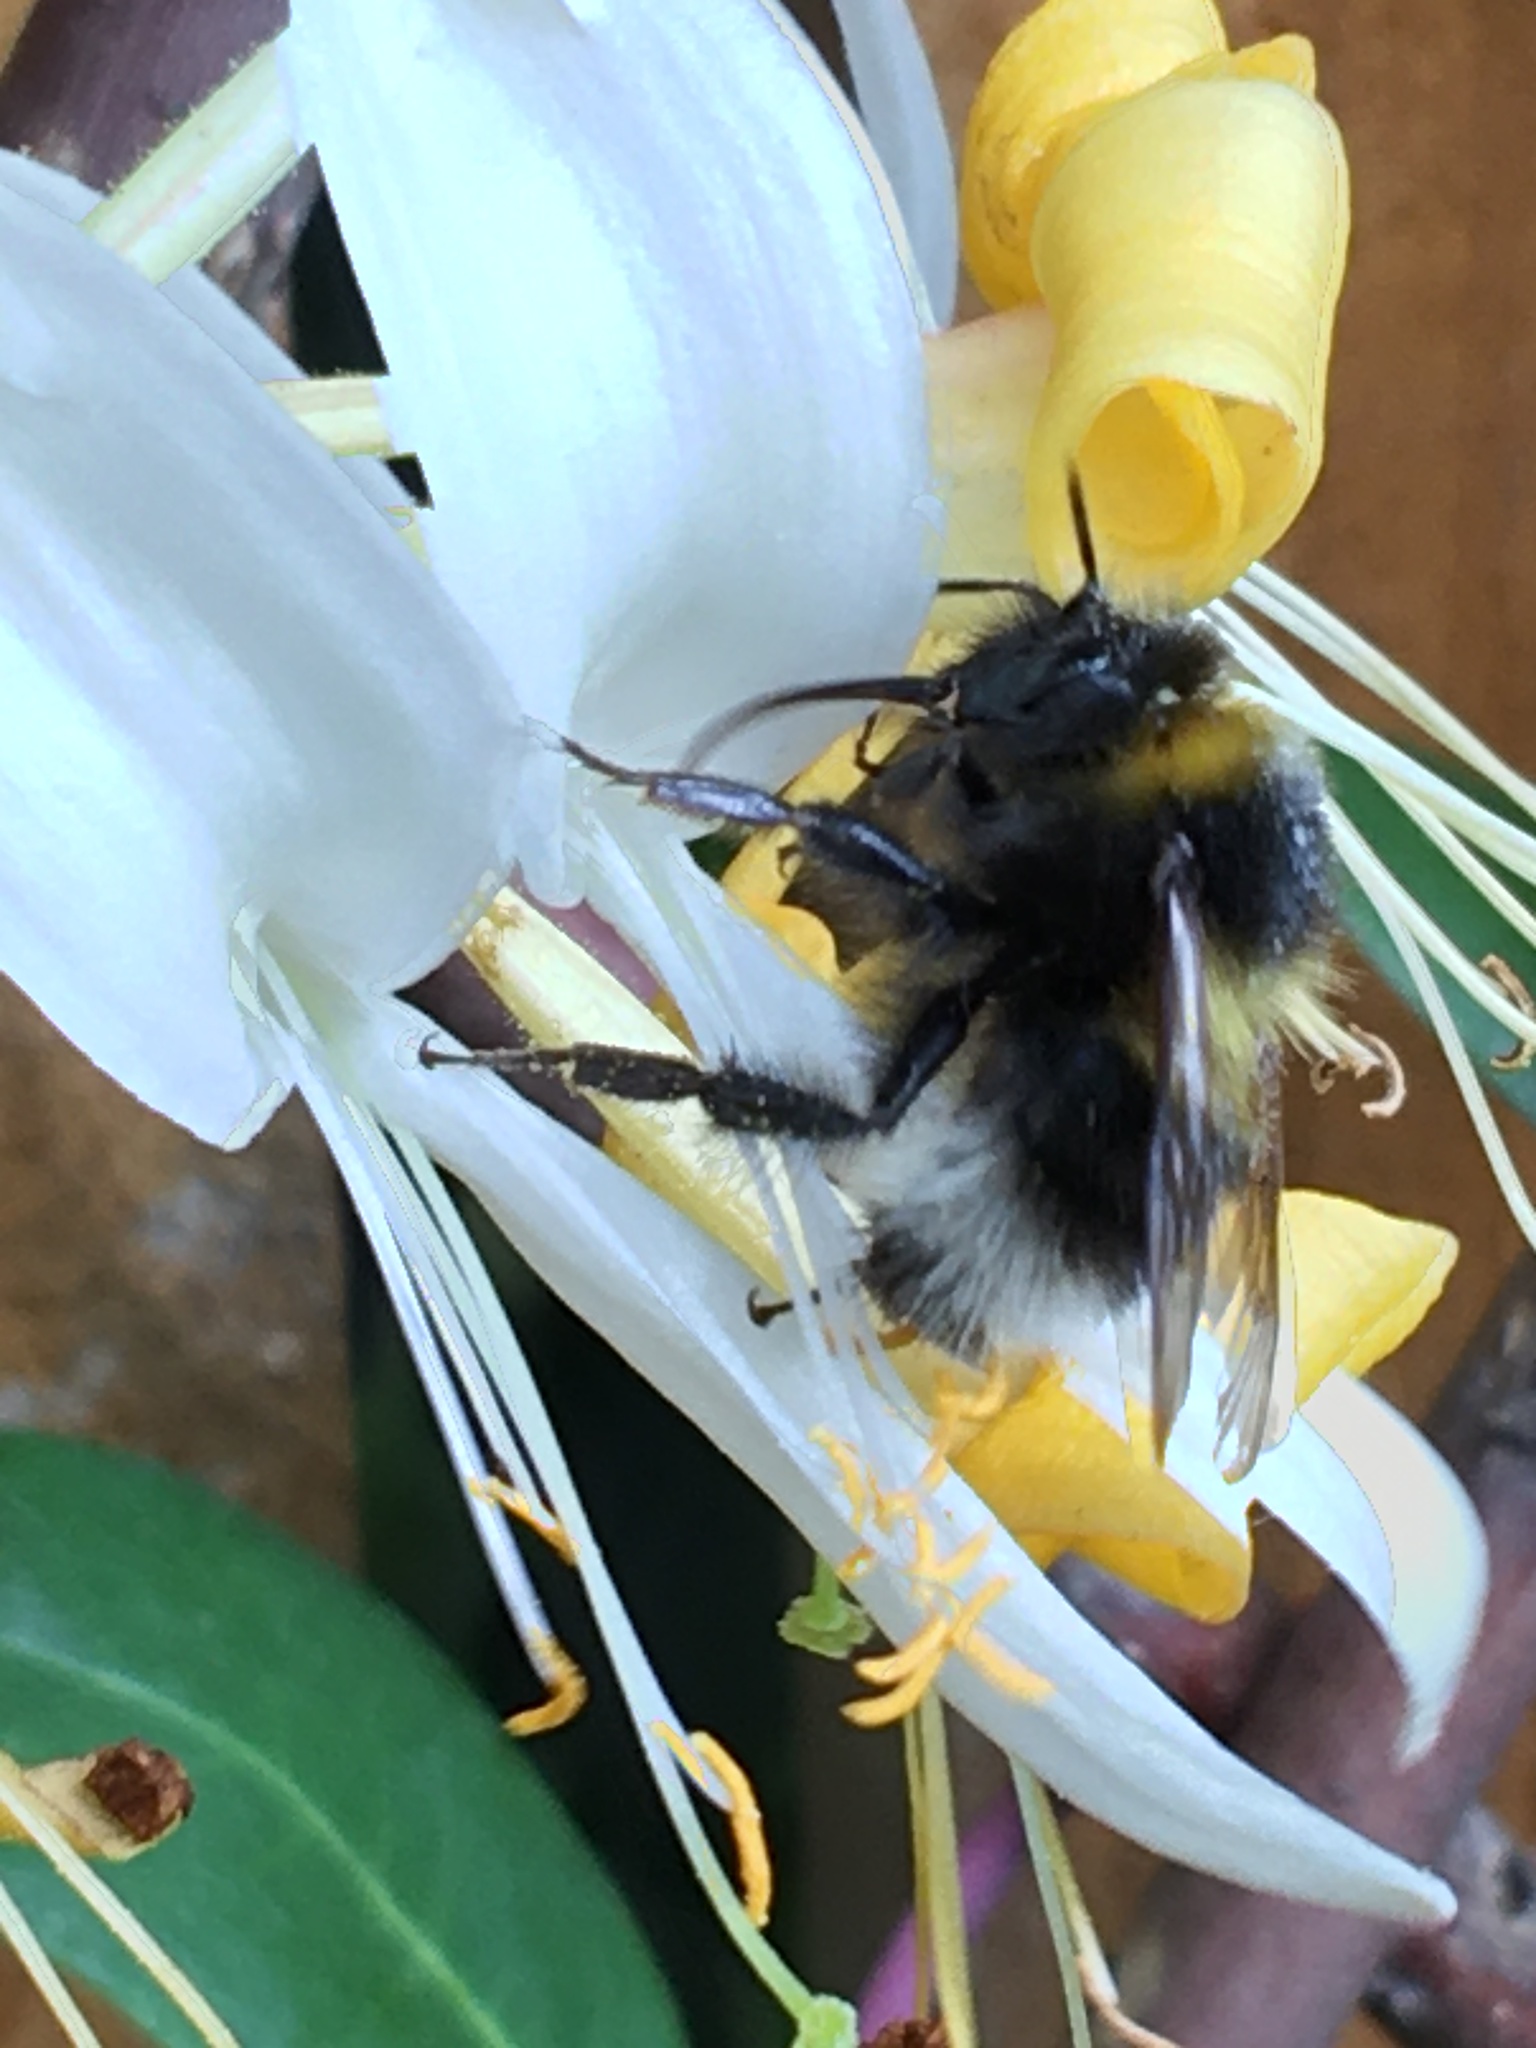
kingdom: Animalia
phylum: Arthropoda
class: Insecta
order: Hymenoptera
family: Apidae
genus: Bombus
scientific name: Bombus hortorum
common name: Garden bumblebee
